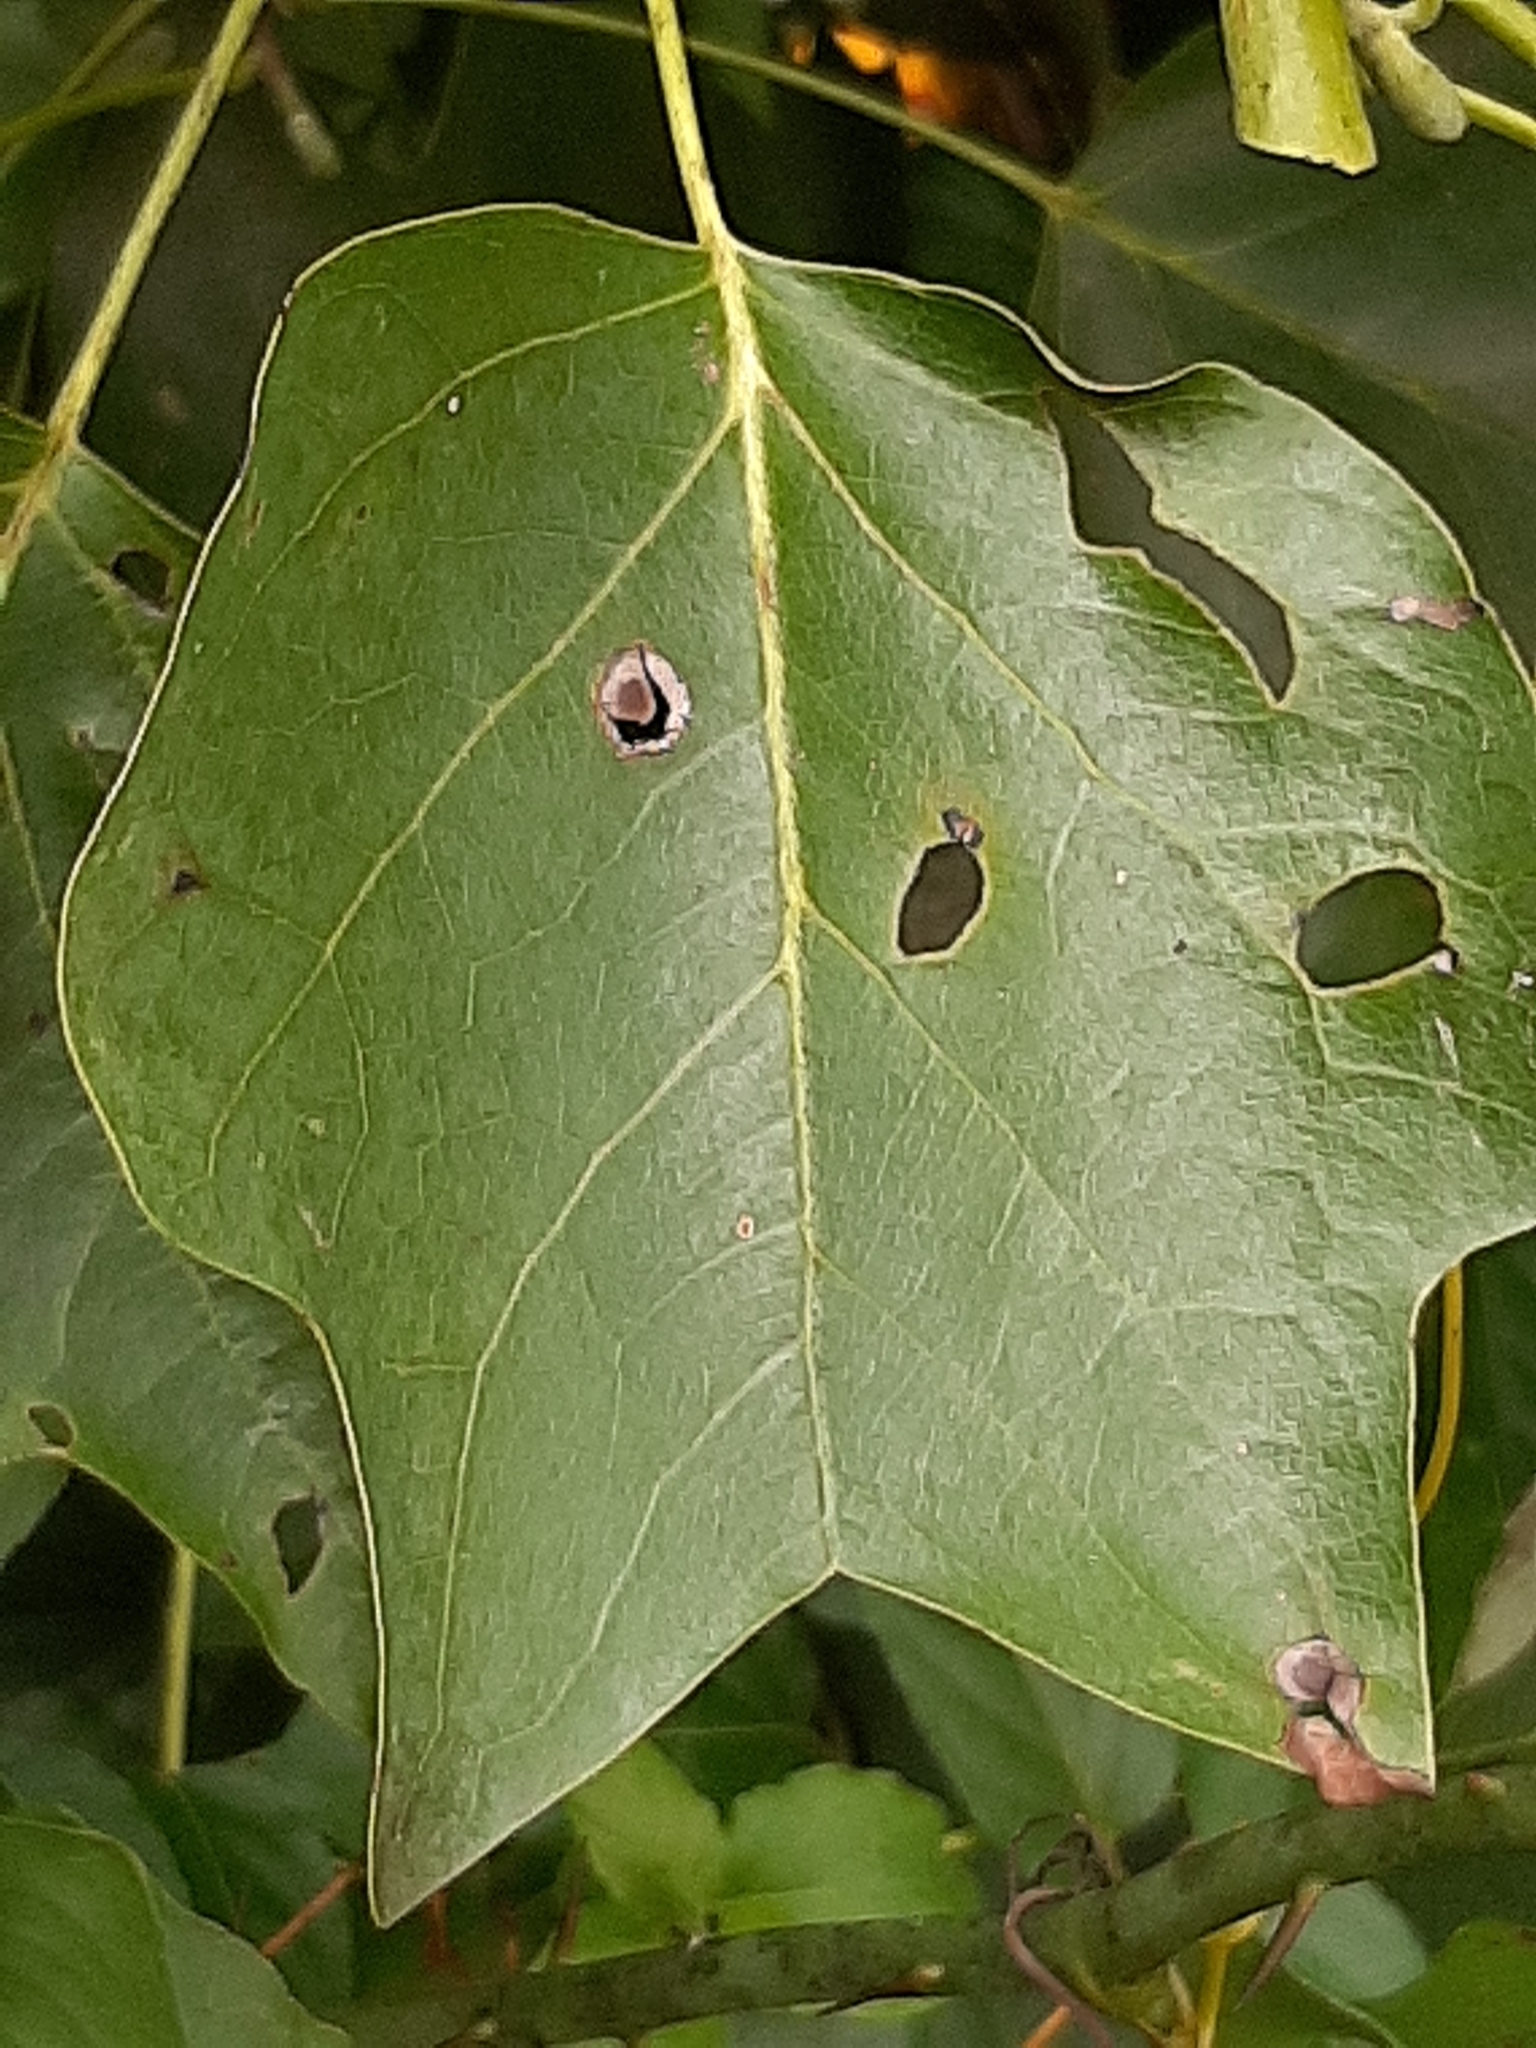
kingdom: Plantae
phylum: Tracheophyta
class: Magnoliopsida
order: Magnoliales
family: Magnoliaceae
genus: Liriodendron
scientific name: Liriodendron tulipifera
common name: Tulip tree
